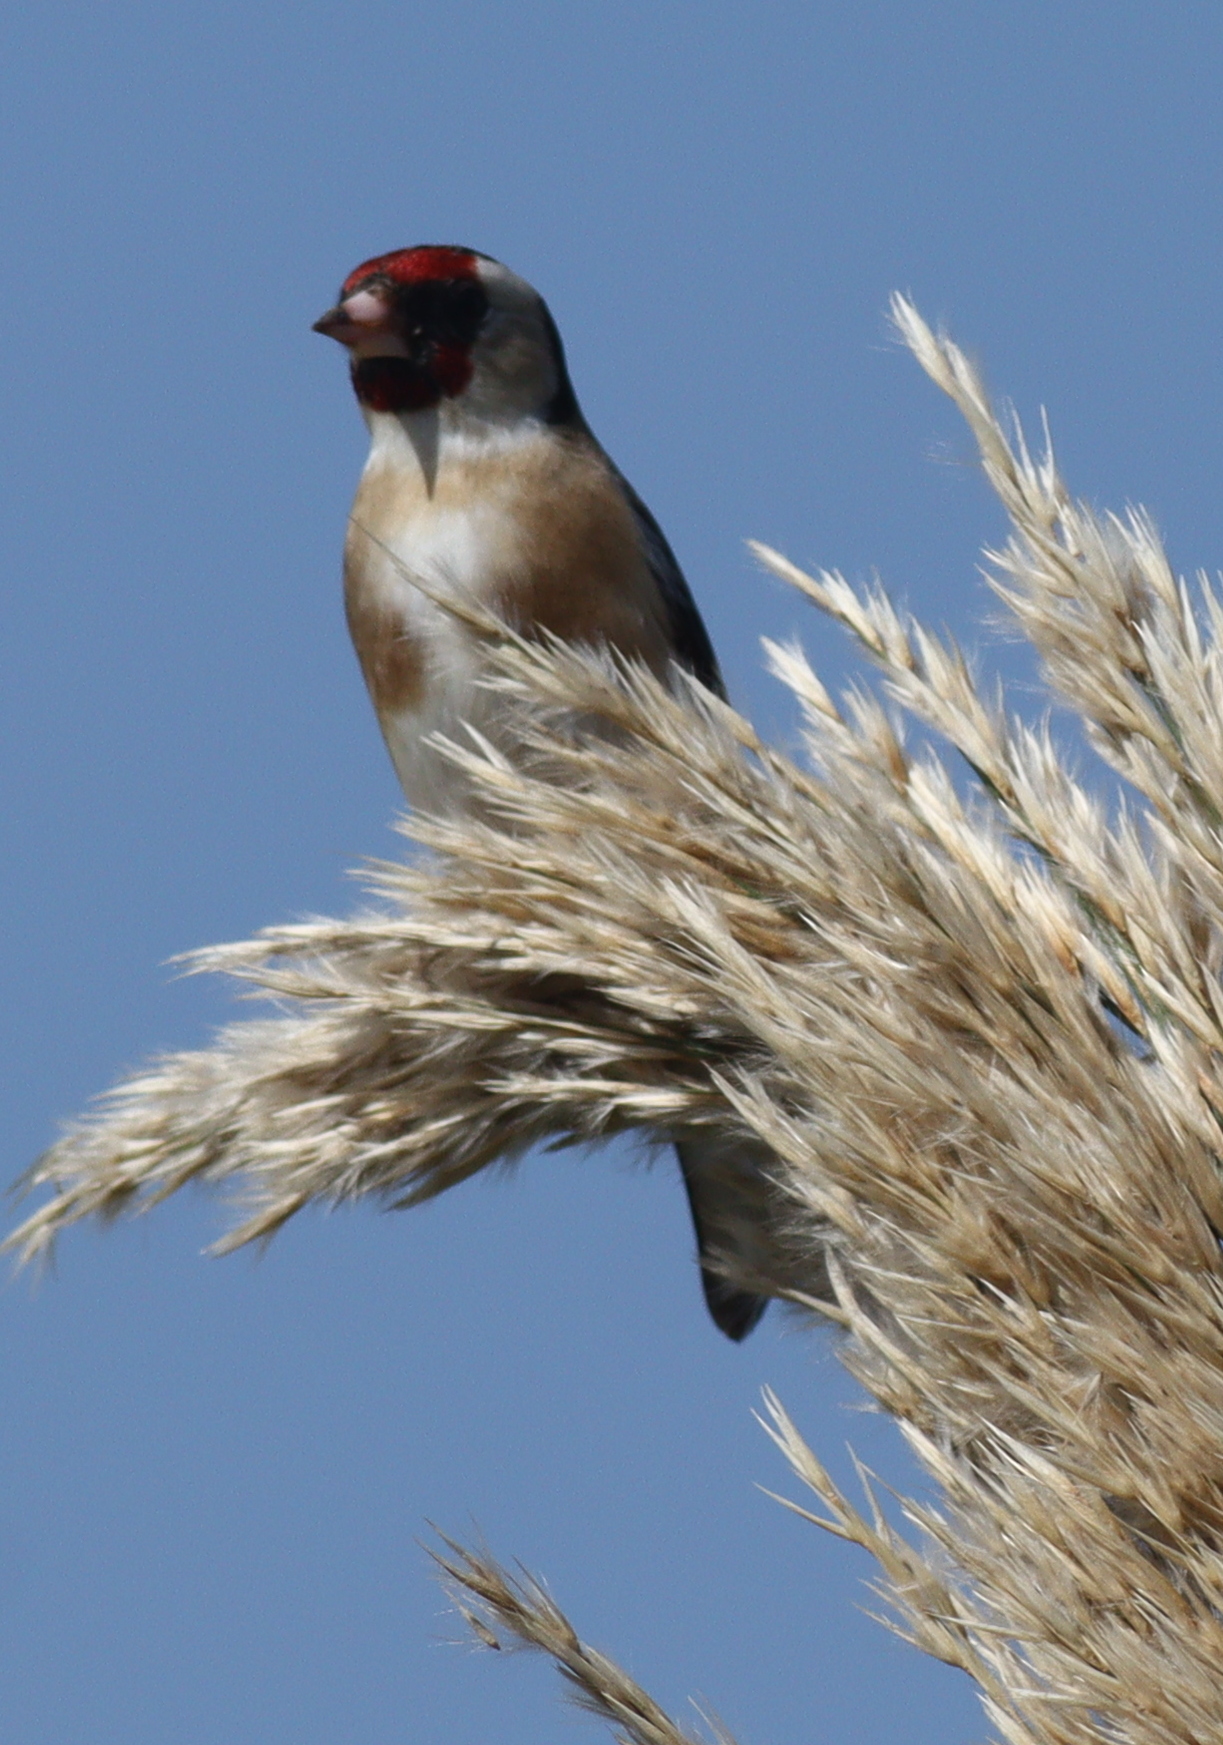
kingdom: Animalia
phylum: Chordata
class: Aves
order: Passeriformes
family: Fringillidae
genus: Carduelis
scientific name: Carduelis carduelis
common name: European goldfinch
